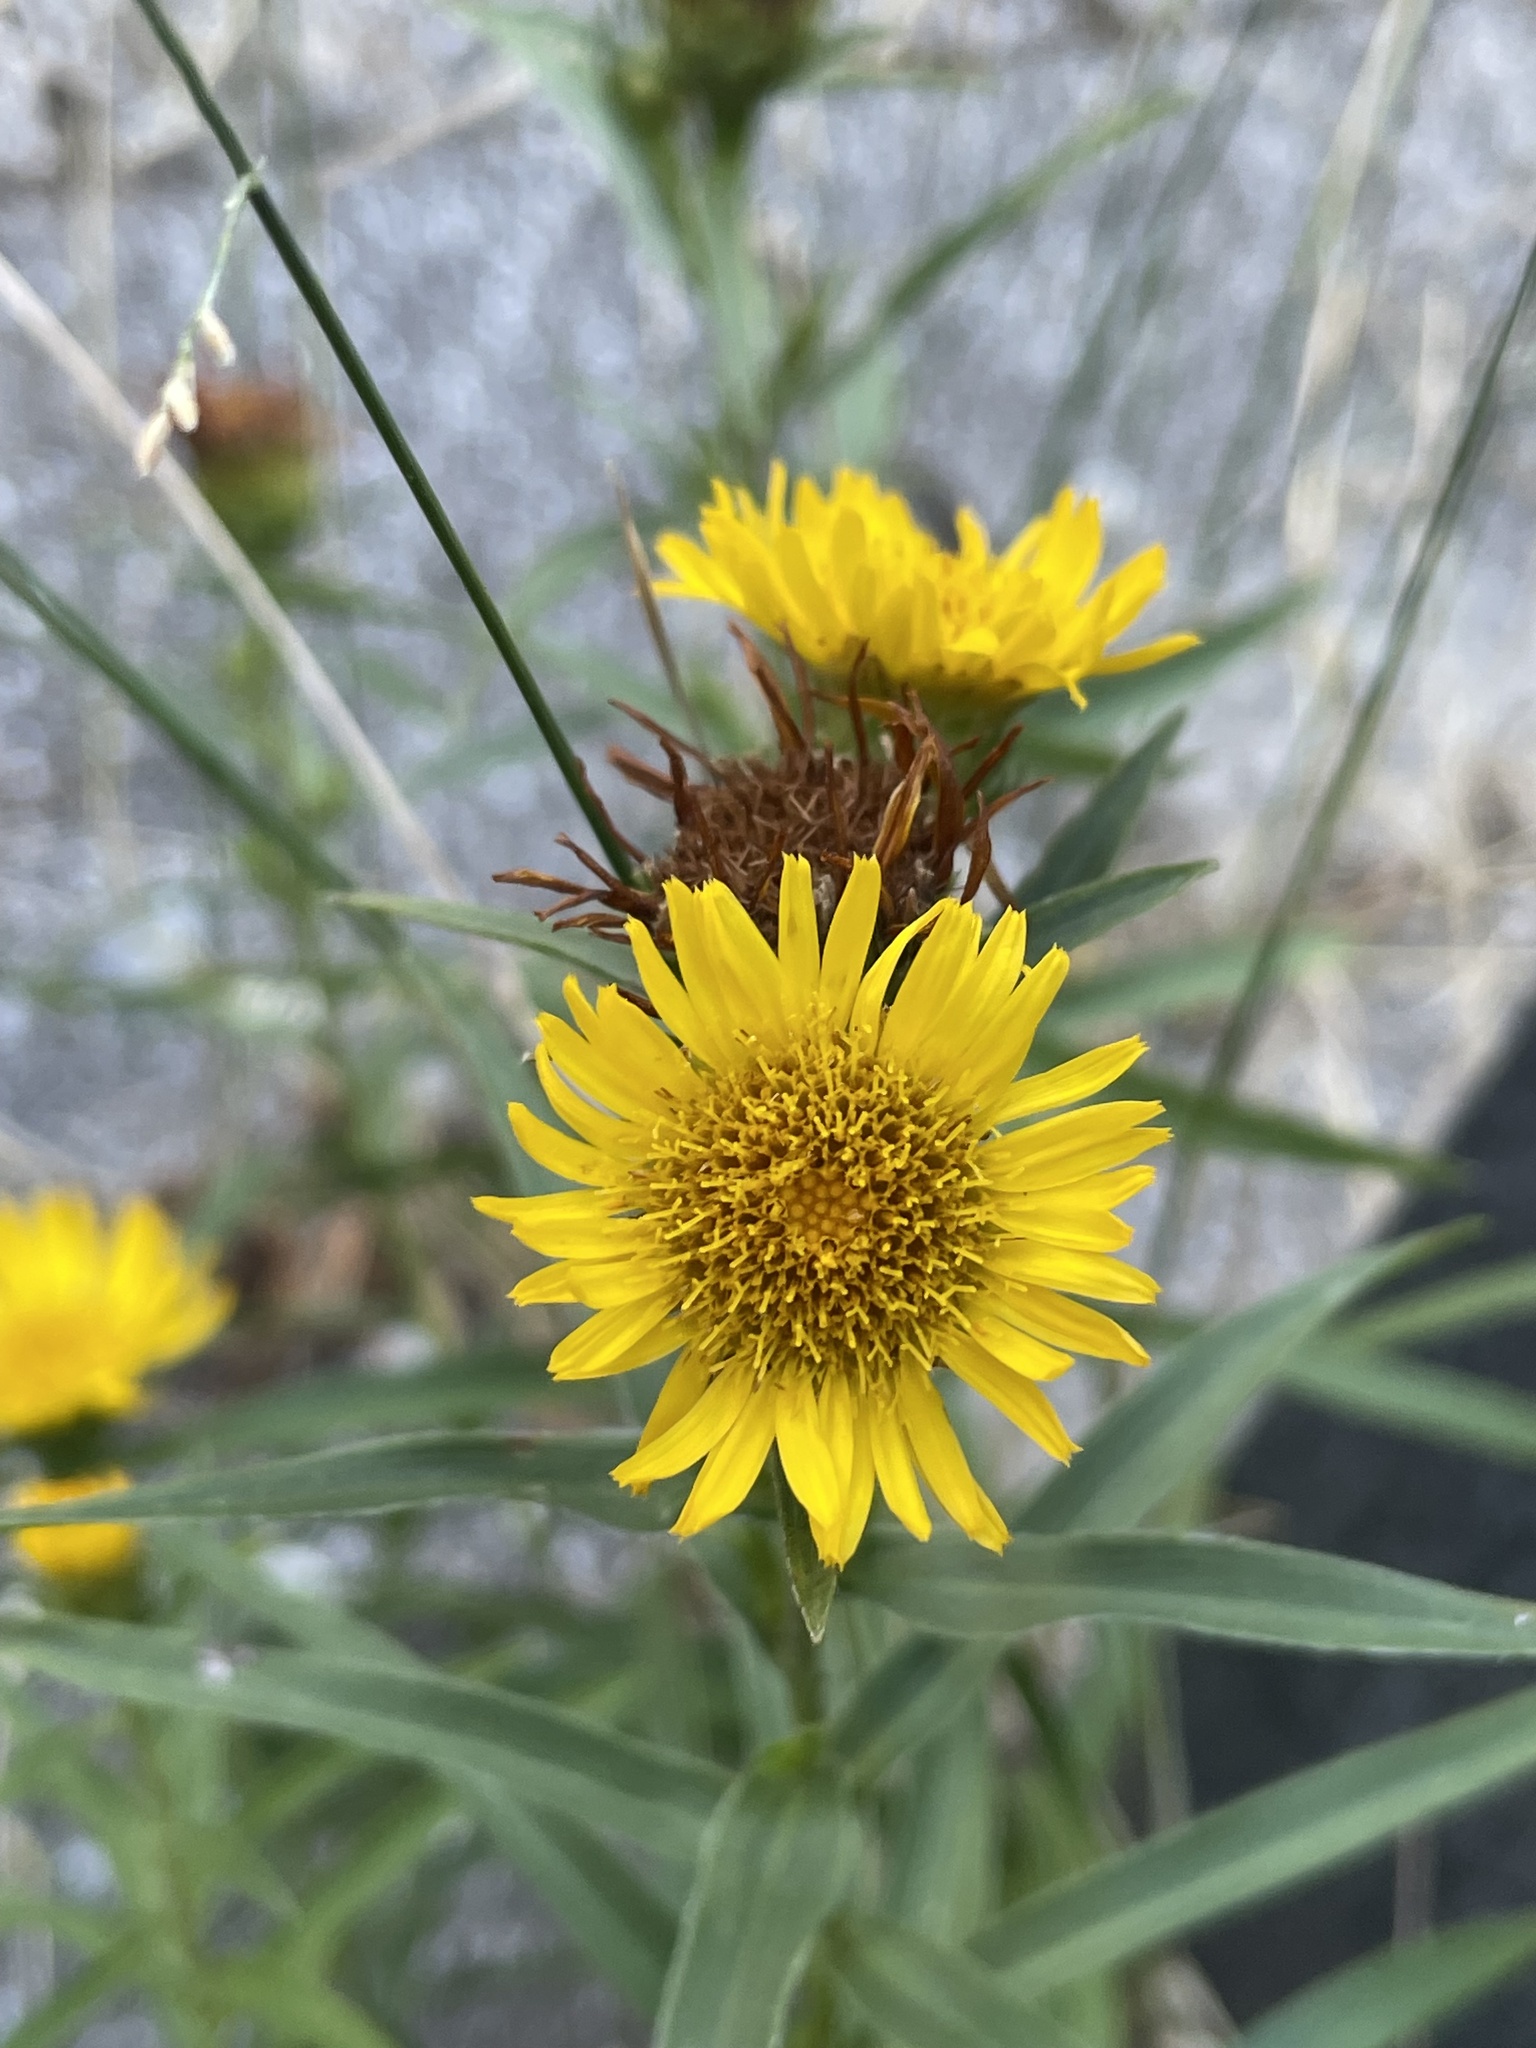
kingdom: Plantae
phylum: Tracheophyta
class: Magnoliopsida
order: Asterales
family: Asteraceae
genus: Pentanema
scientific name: Pentanema ensifolium
